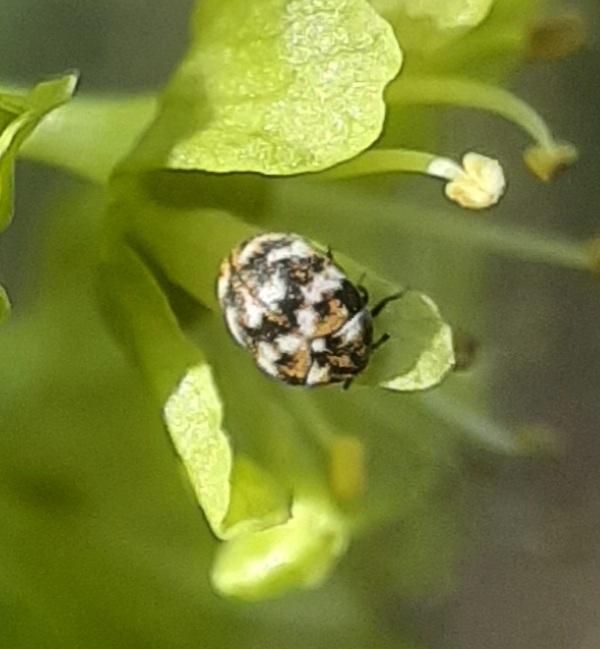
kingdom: Animalia
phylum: Arthropoda
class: Insecta
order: Coleoptera
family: Dermestidae
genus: Anthrenus
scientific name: Anthrenus verbasci
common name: Varied carpet beetle
